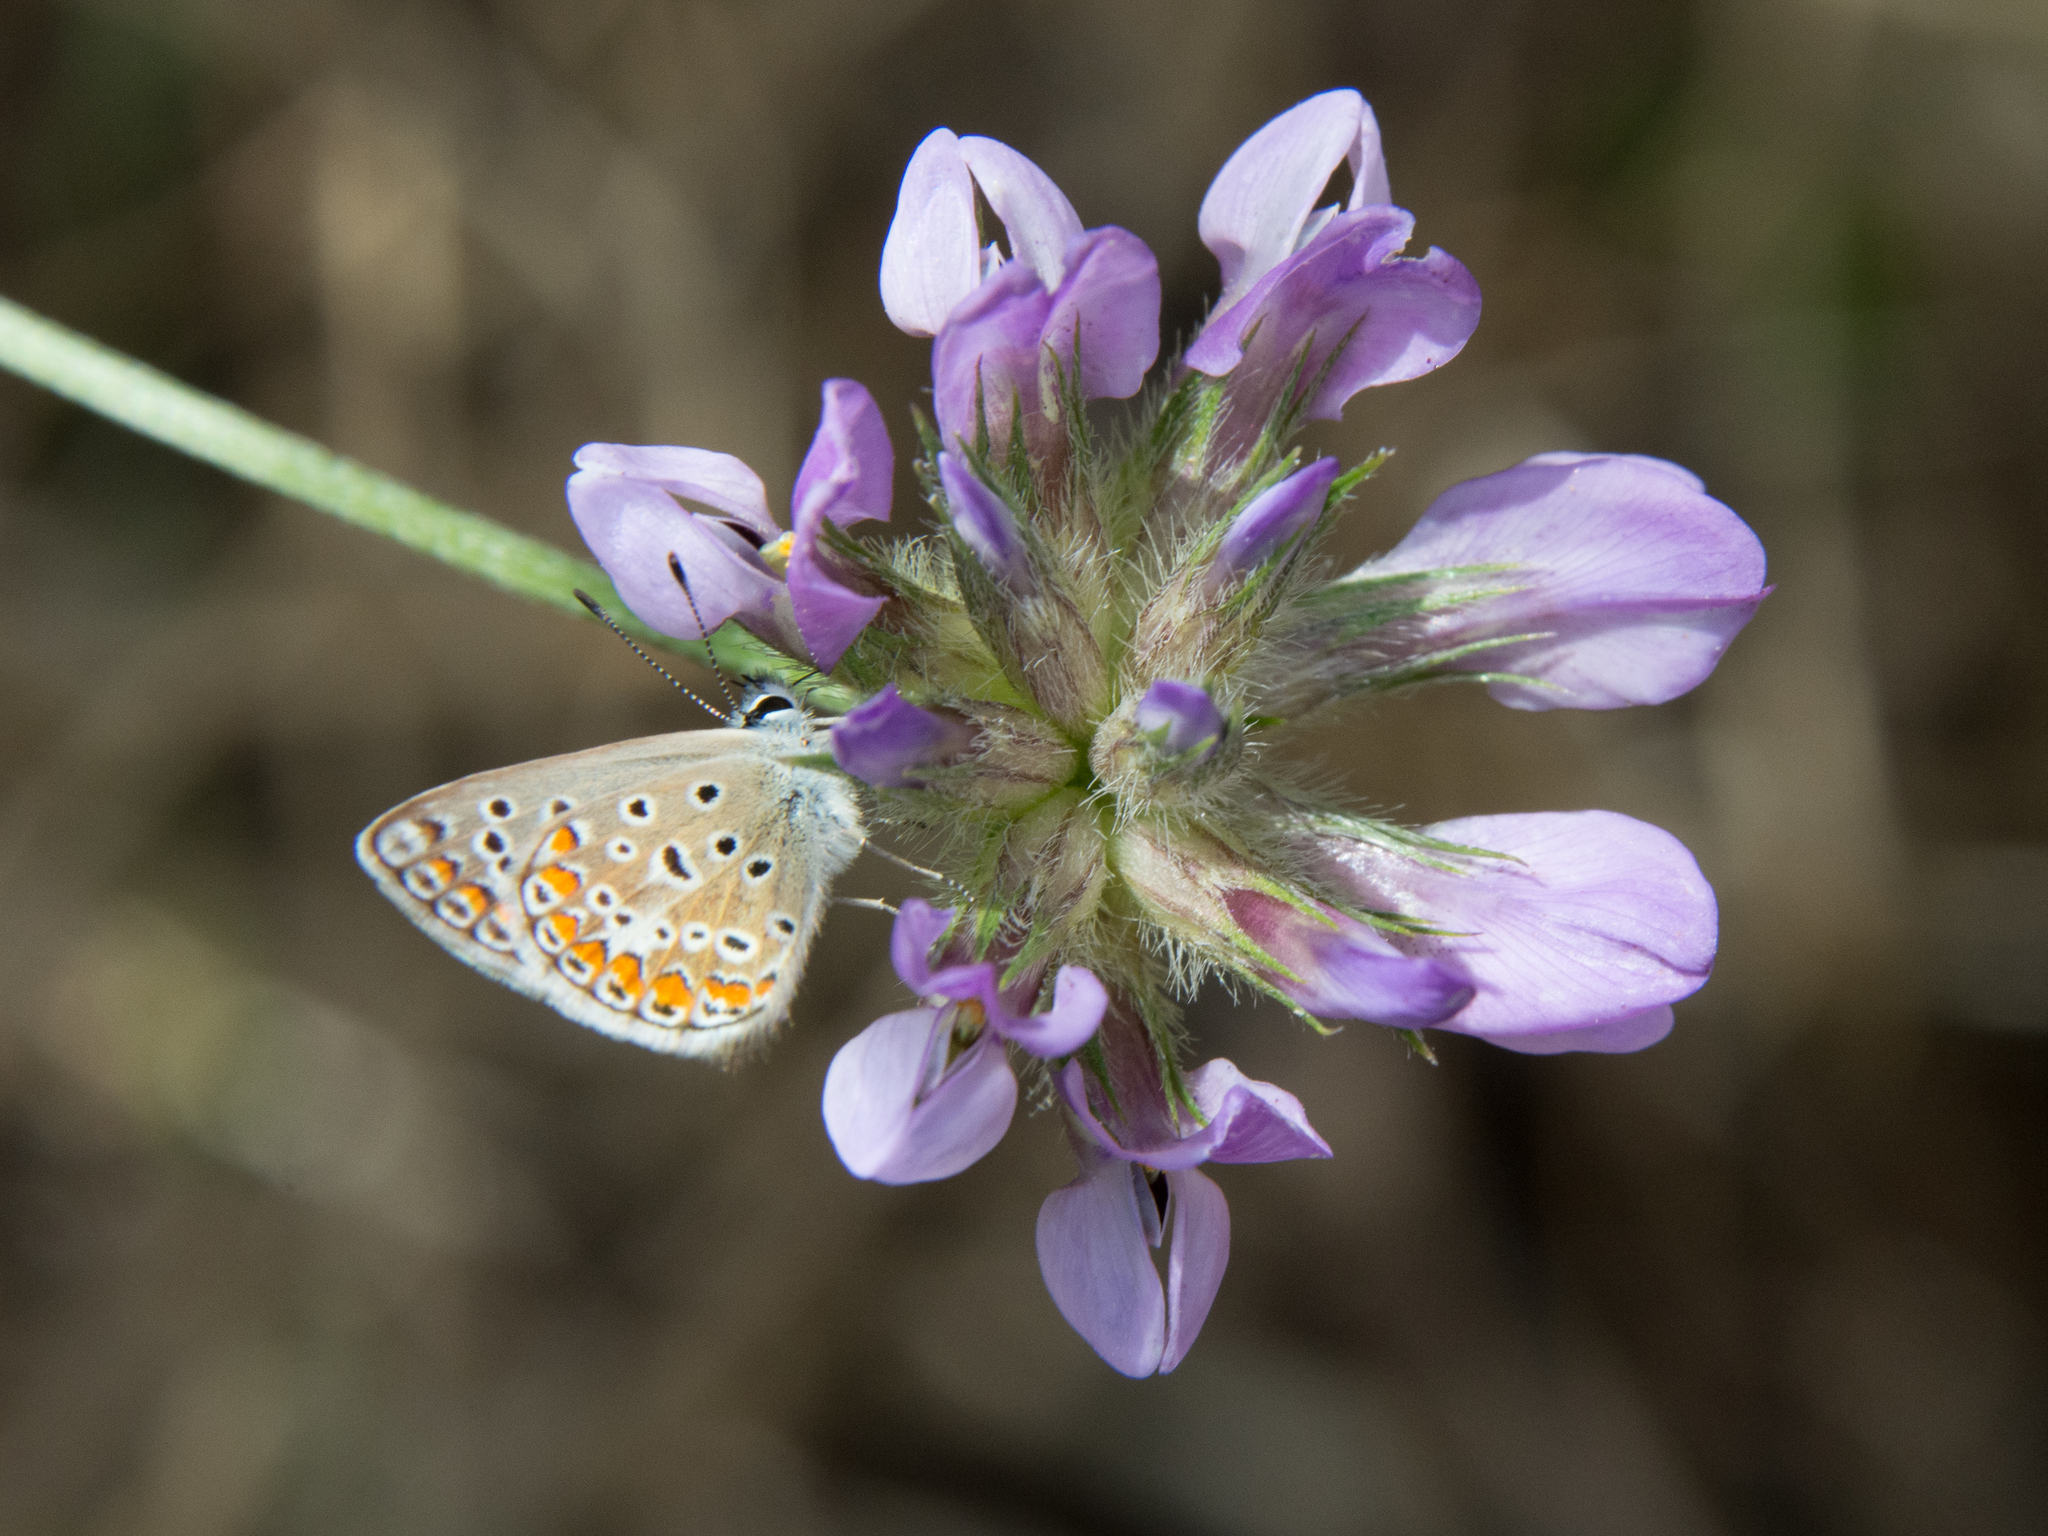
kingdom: Plantae
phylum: Tracheophyta
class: Magnoliopsida
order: Fabales
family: Fabaceae
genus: Bituminaria
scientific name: Bituminaria bituminosa
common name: Arabian pea
